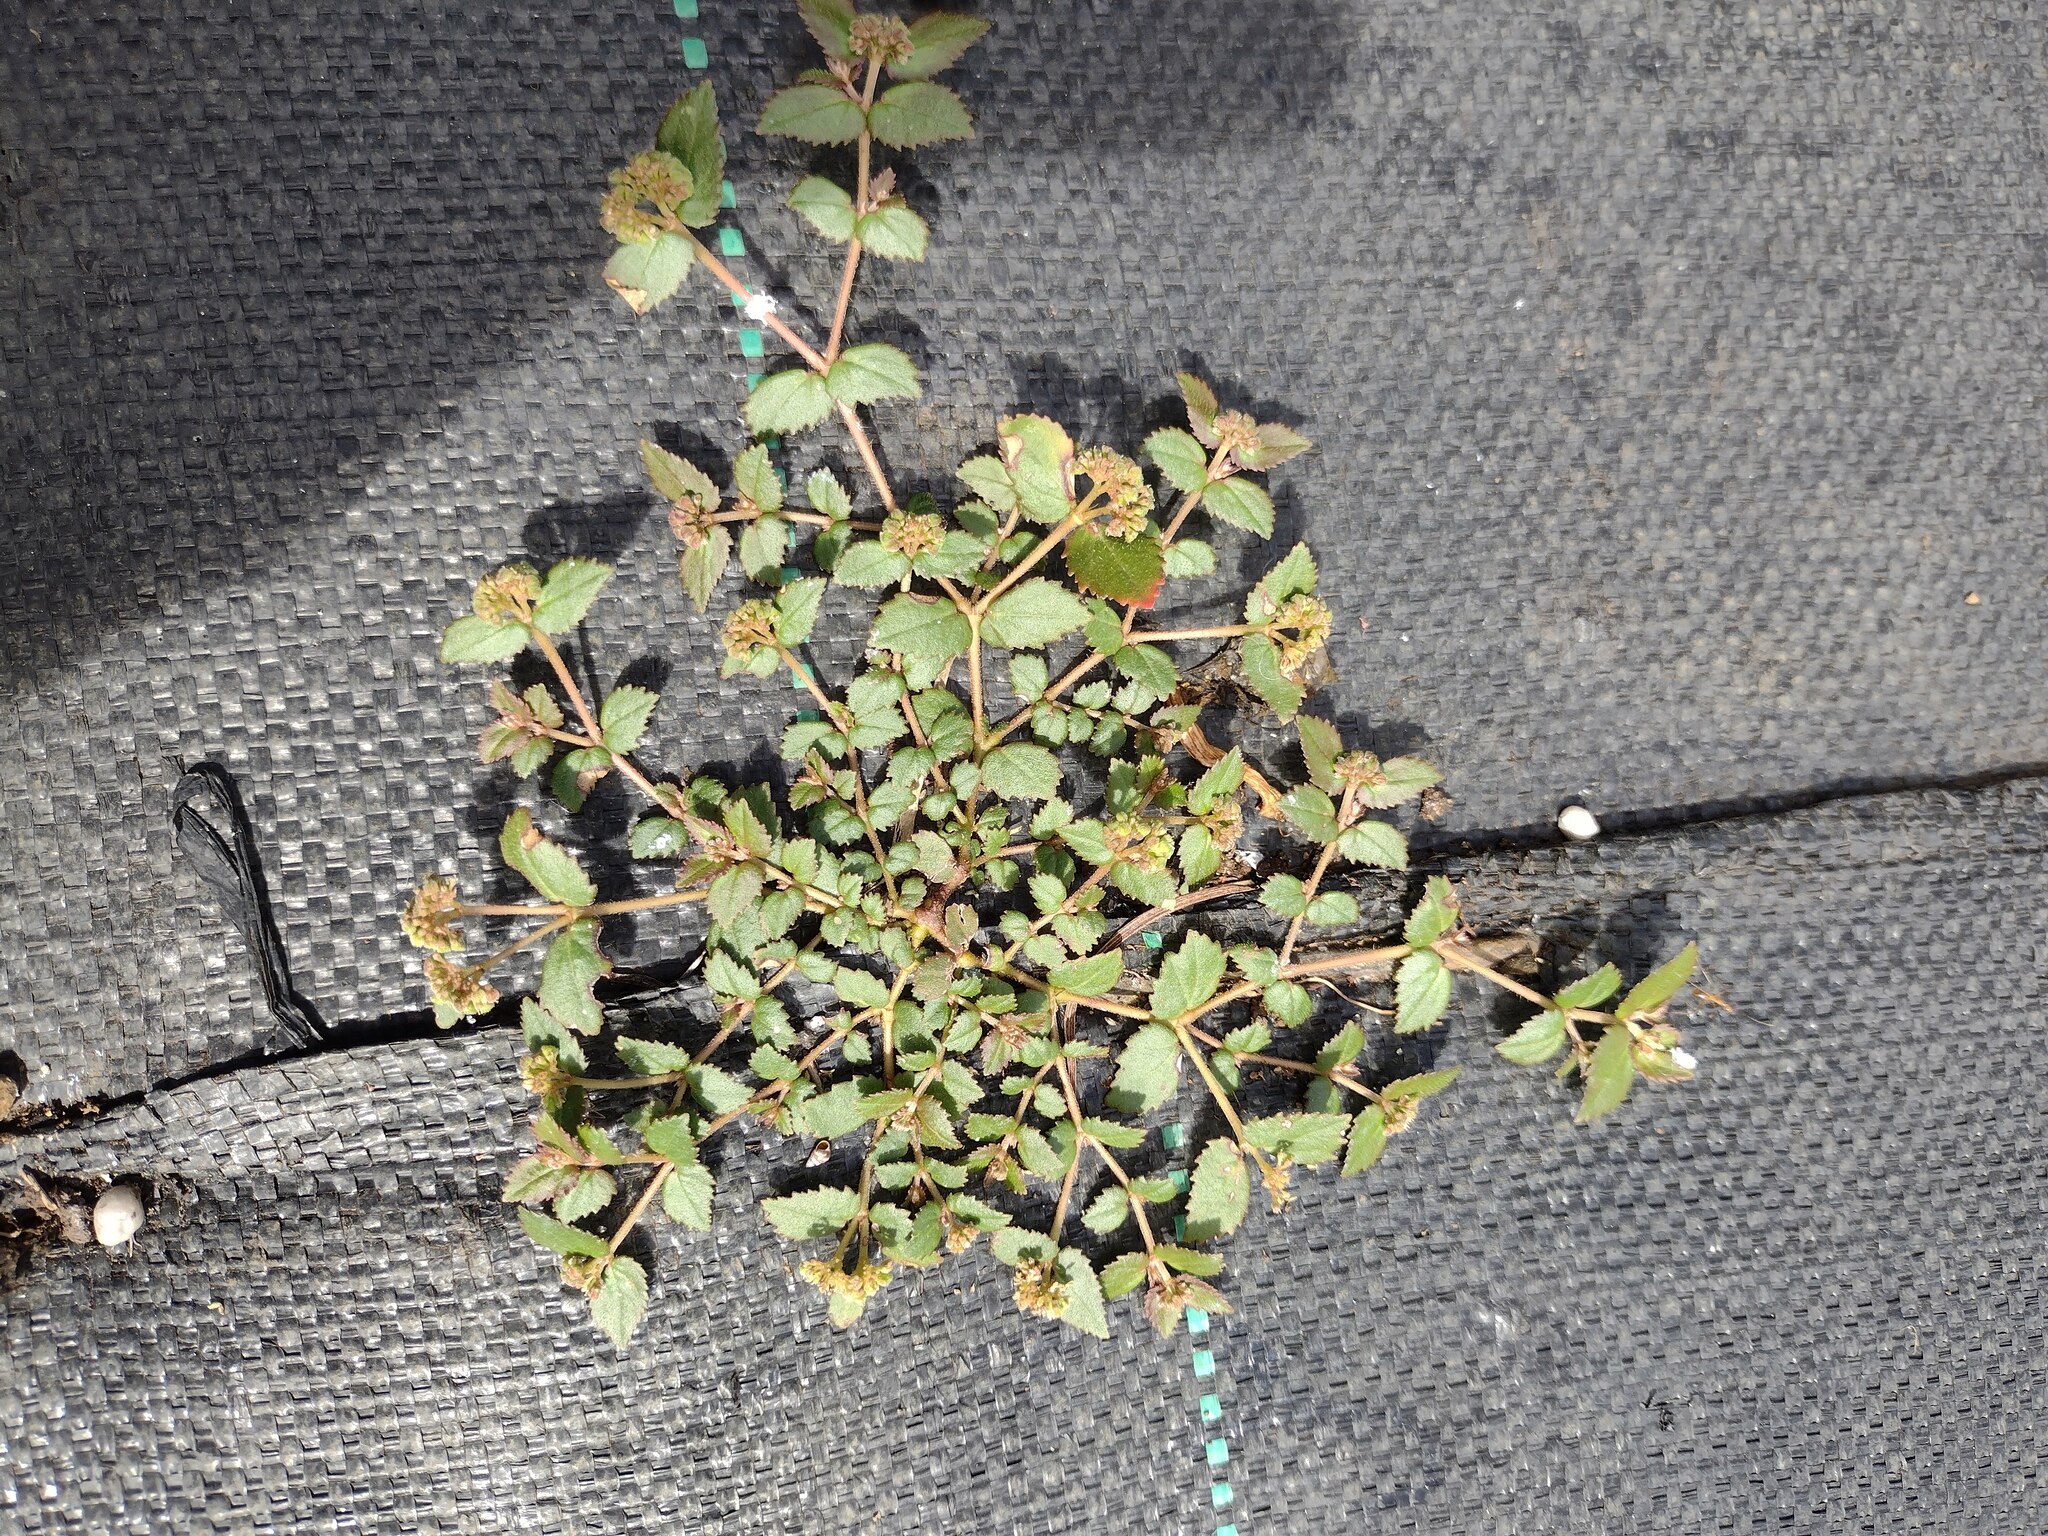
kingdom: Plantae
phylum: Tracheophyta
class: Magnoliopsida
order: Malpighiales
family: Euphorbiaceae
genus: Euphorbia
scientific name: Euphorbia ophthalmica
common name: Florida hammock sandmat
